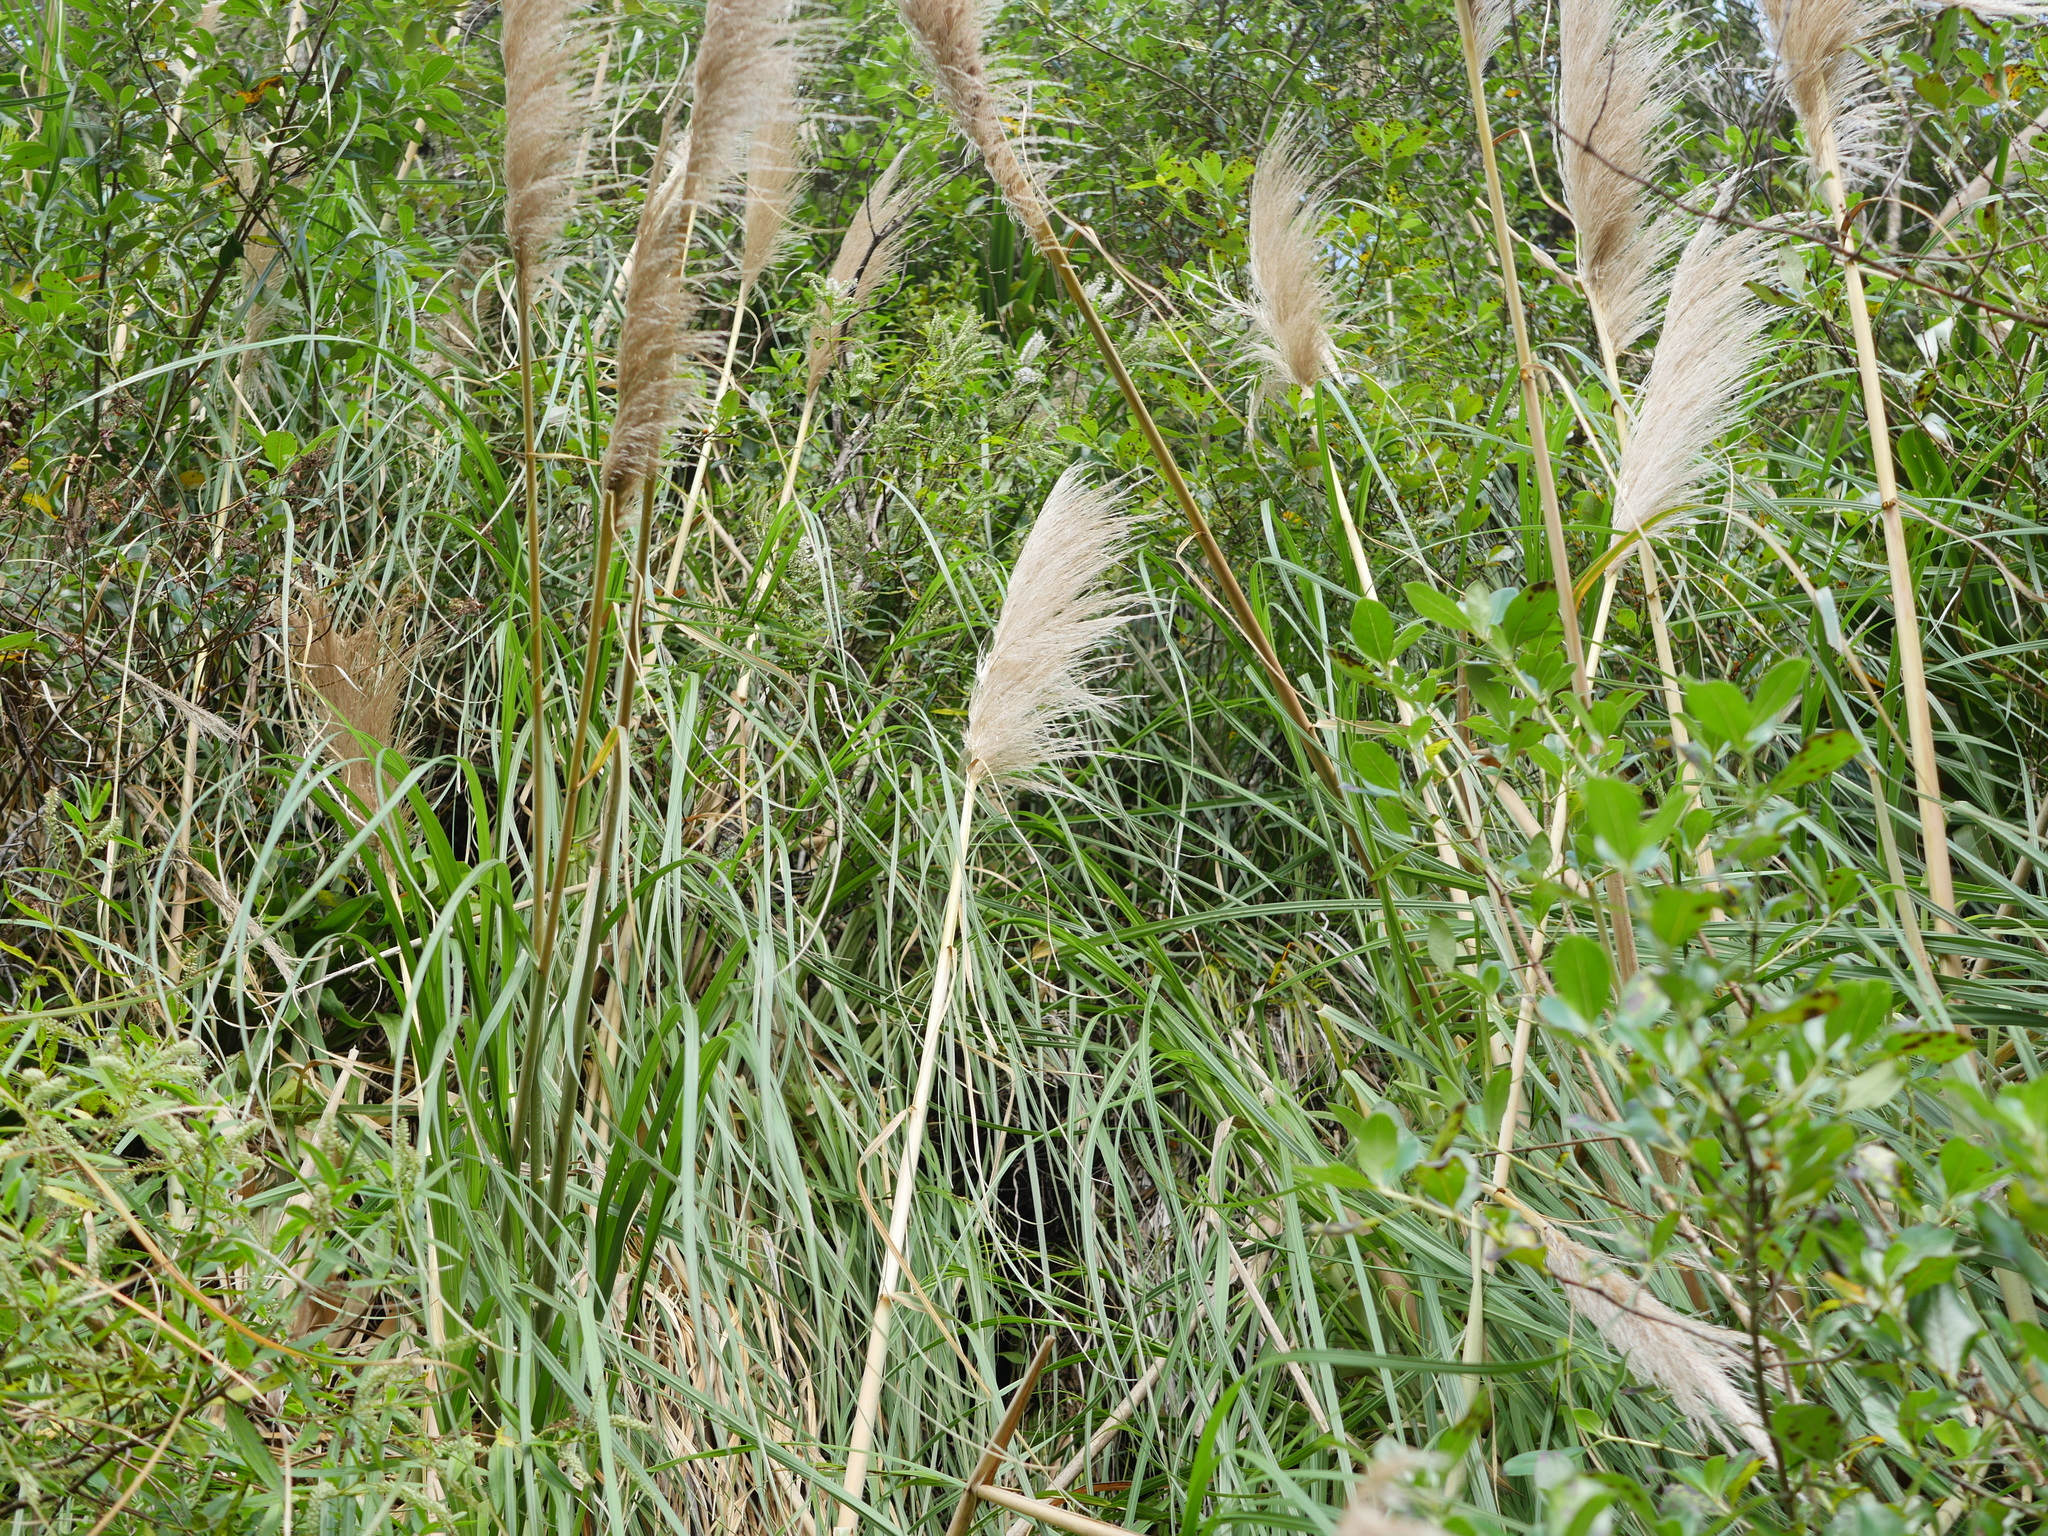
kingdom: Plantae
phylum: Tracheophyta
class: Liliopsida
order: Poales
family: Poaceae
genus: Cortaderia
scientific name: Cortaderia jubata
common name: Purple pampas grass
